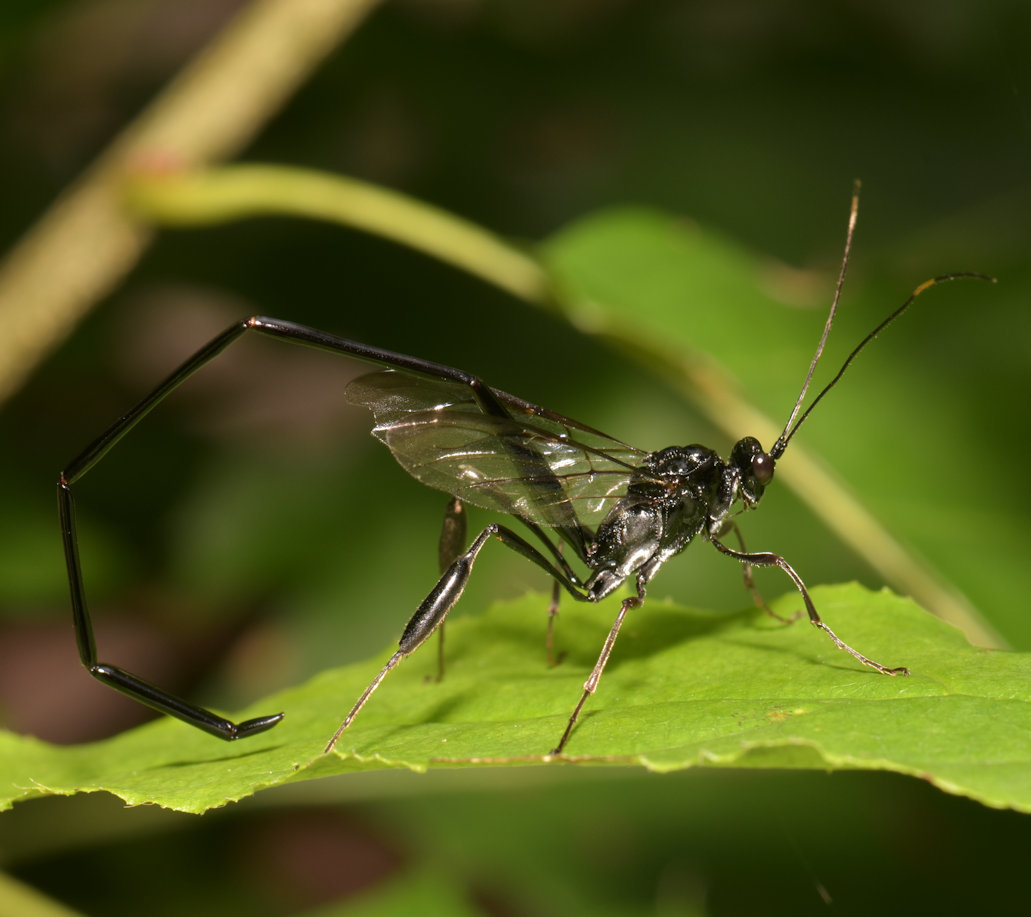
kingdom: Animalia
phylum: Arthropoda
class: Insecta
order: Hymenoptera
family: Pelecinidae
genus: Pelecinus
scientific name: Pelecinus polyturator
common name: American pelecinid wasp
